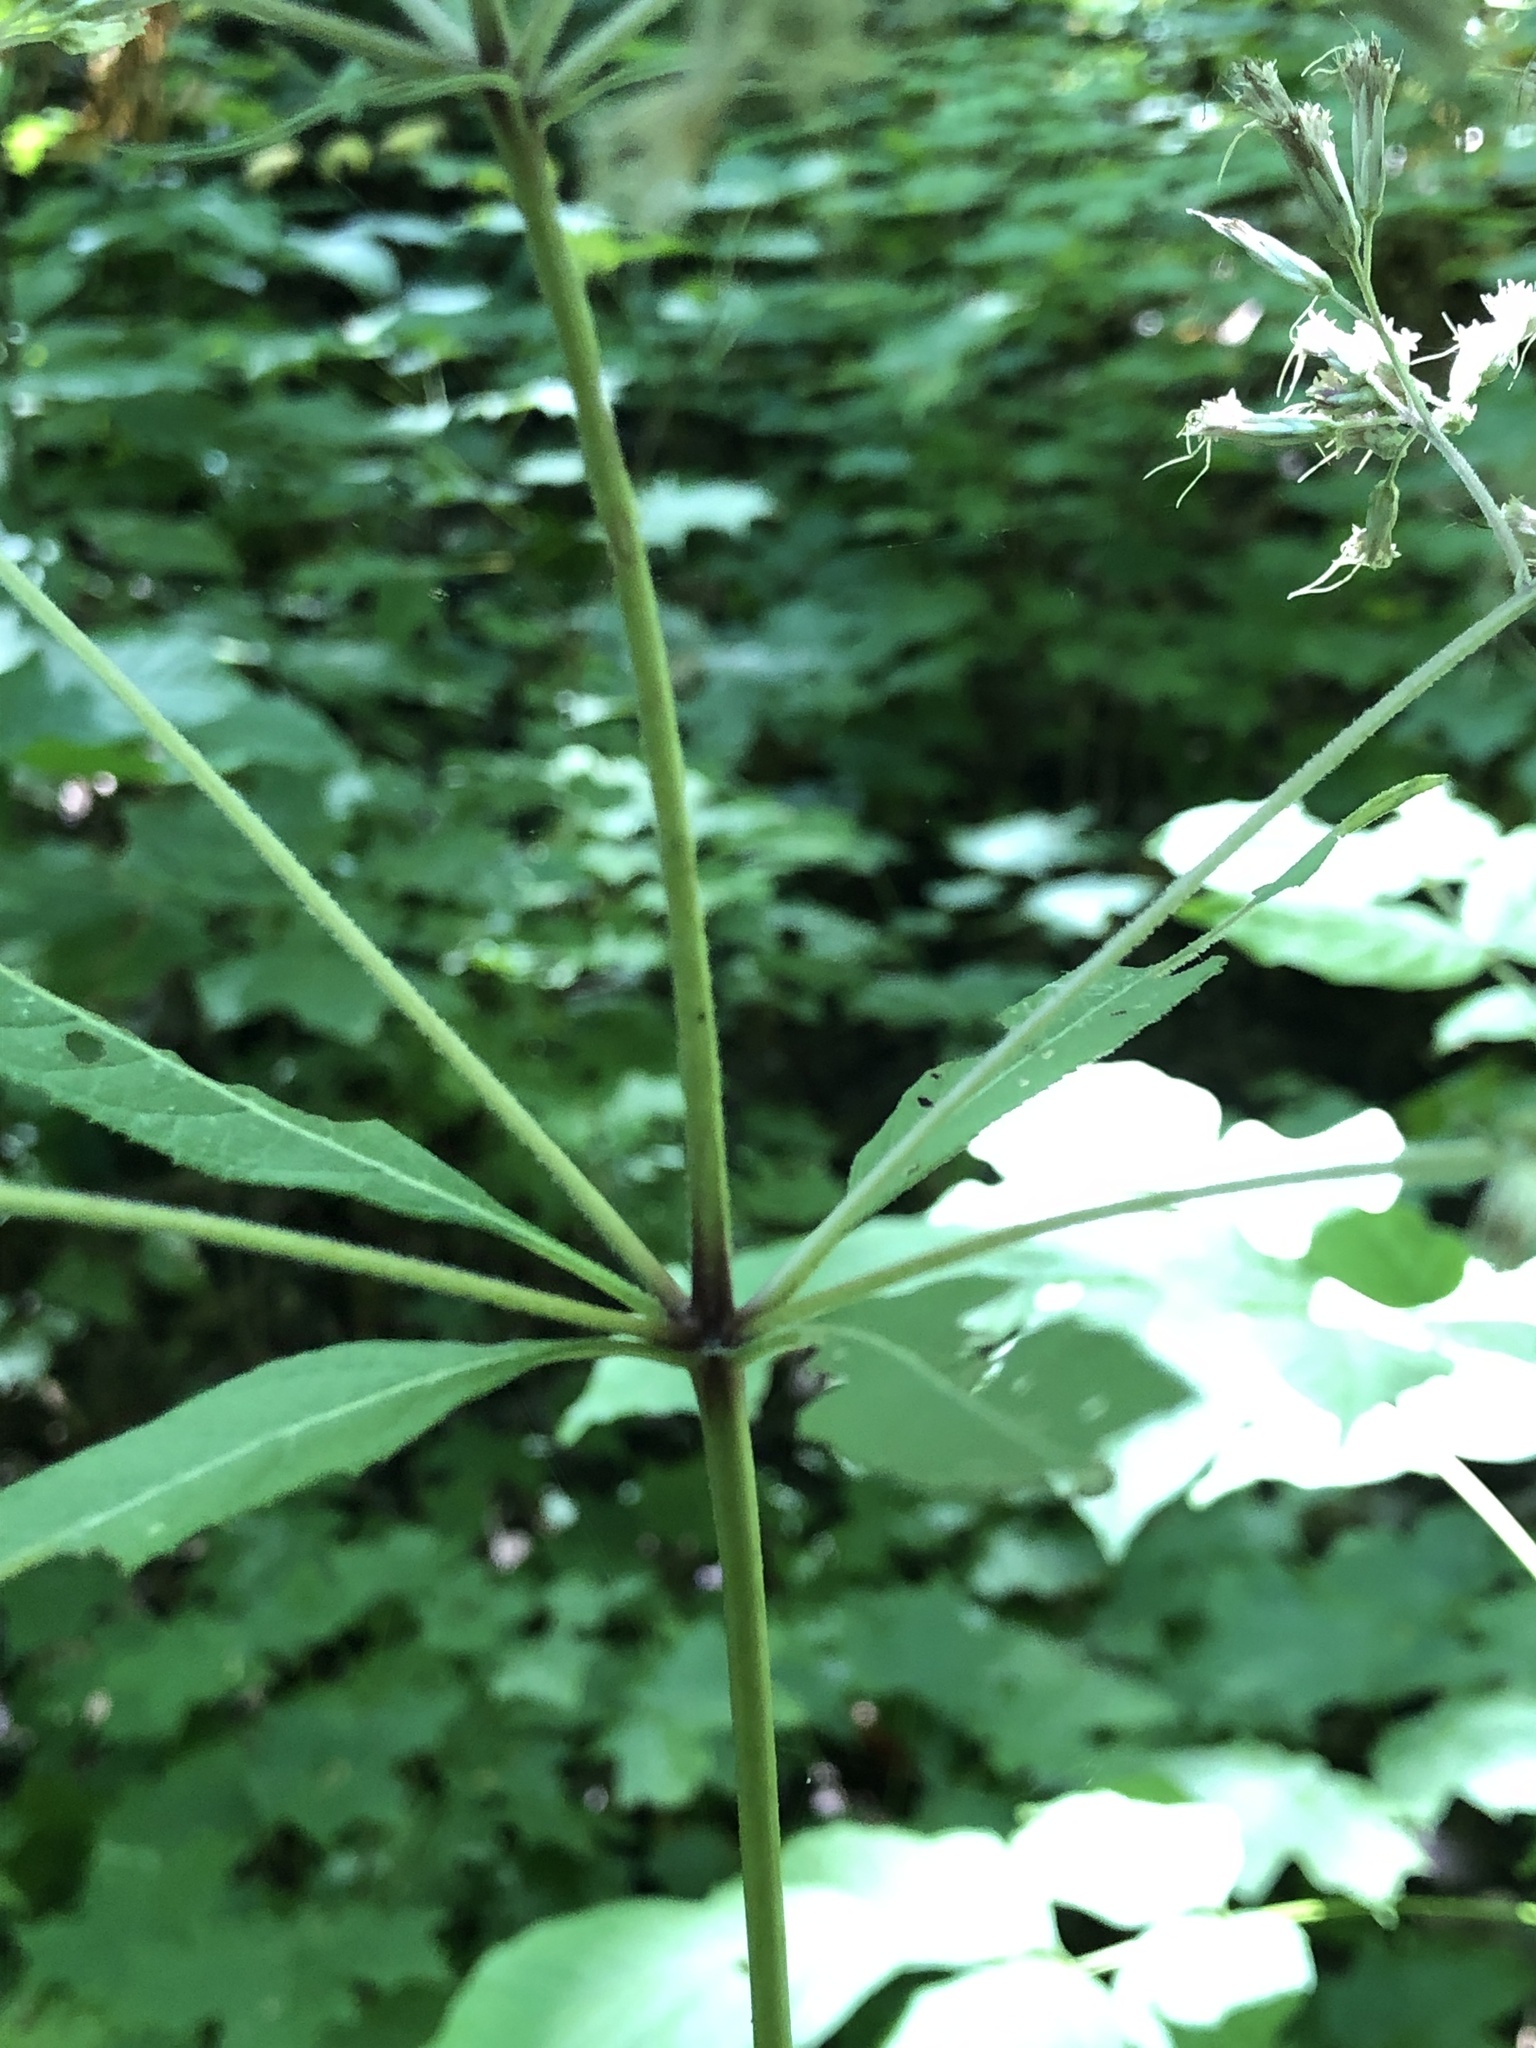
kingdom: Plantae
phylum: Tracheophyta
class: Magnoliopsida
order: Asterales
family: Asteraceae
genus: Eutrochium
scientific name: Eutrochium purpureum
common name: Gravelroot
